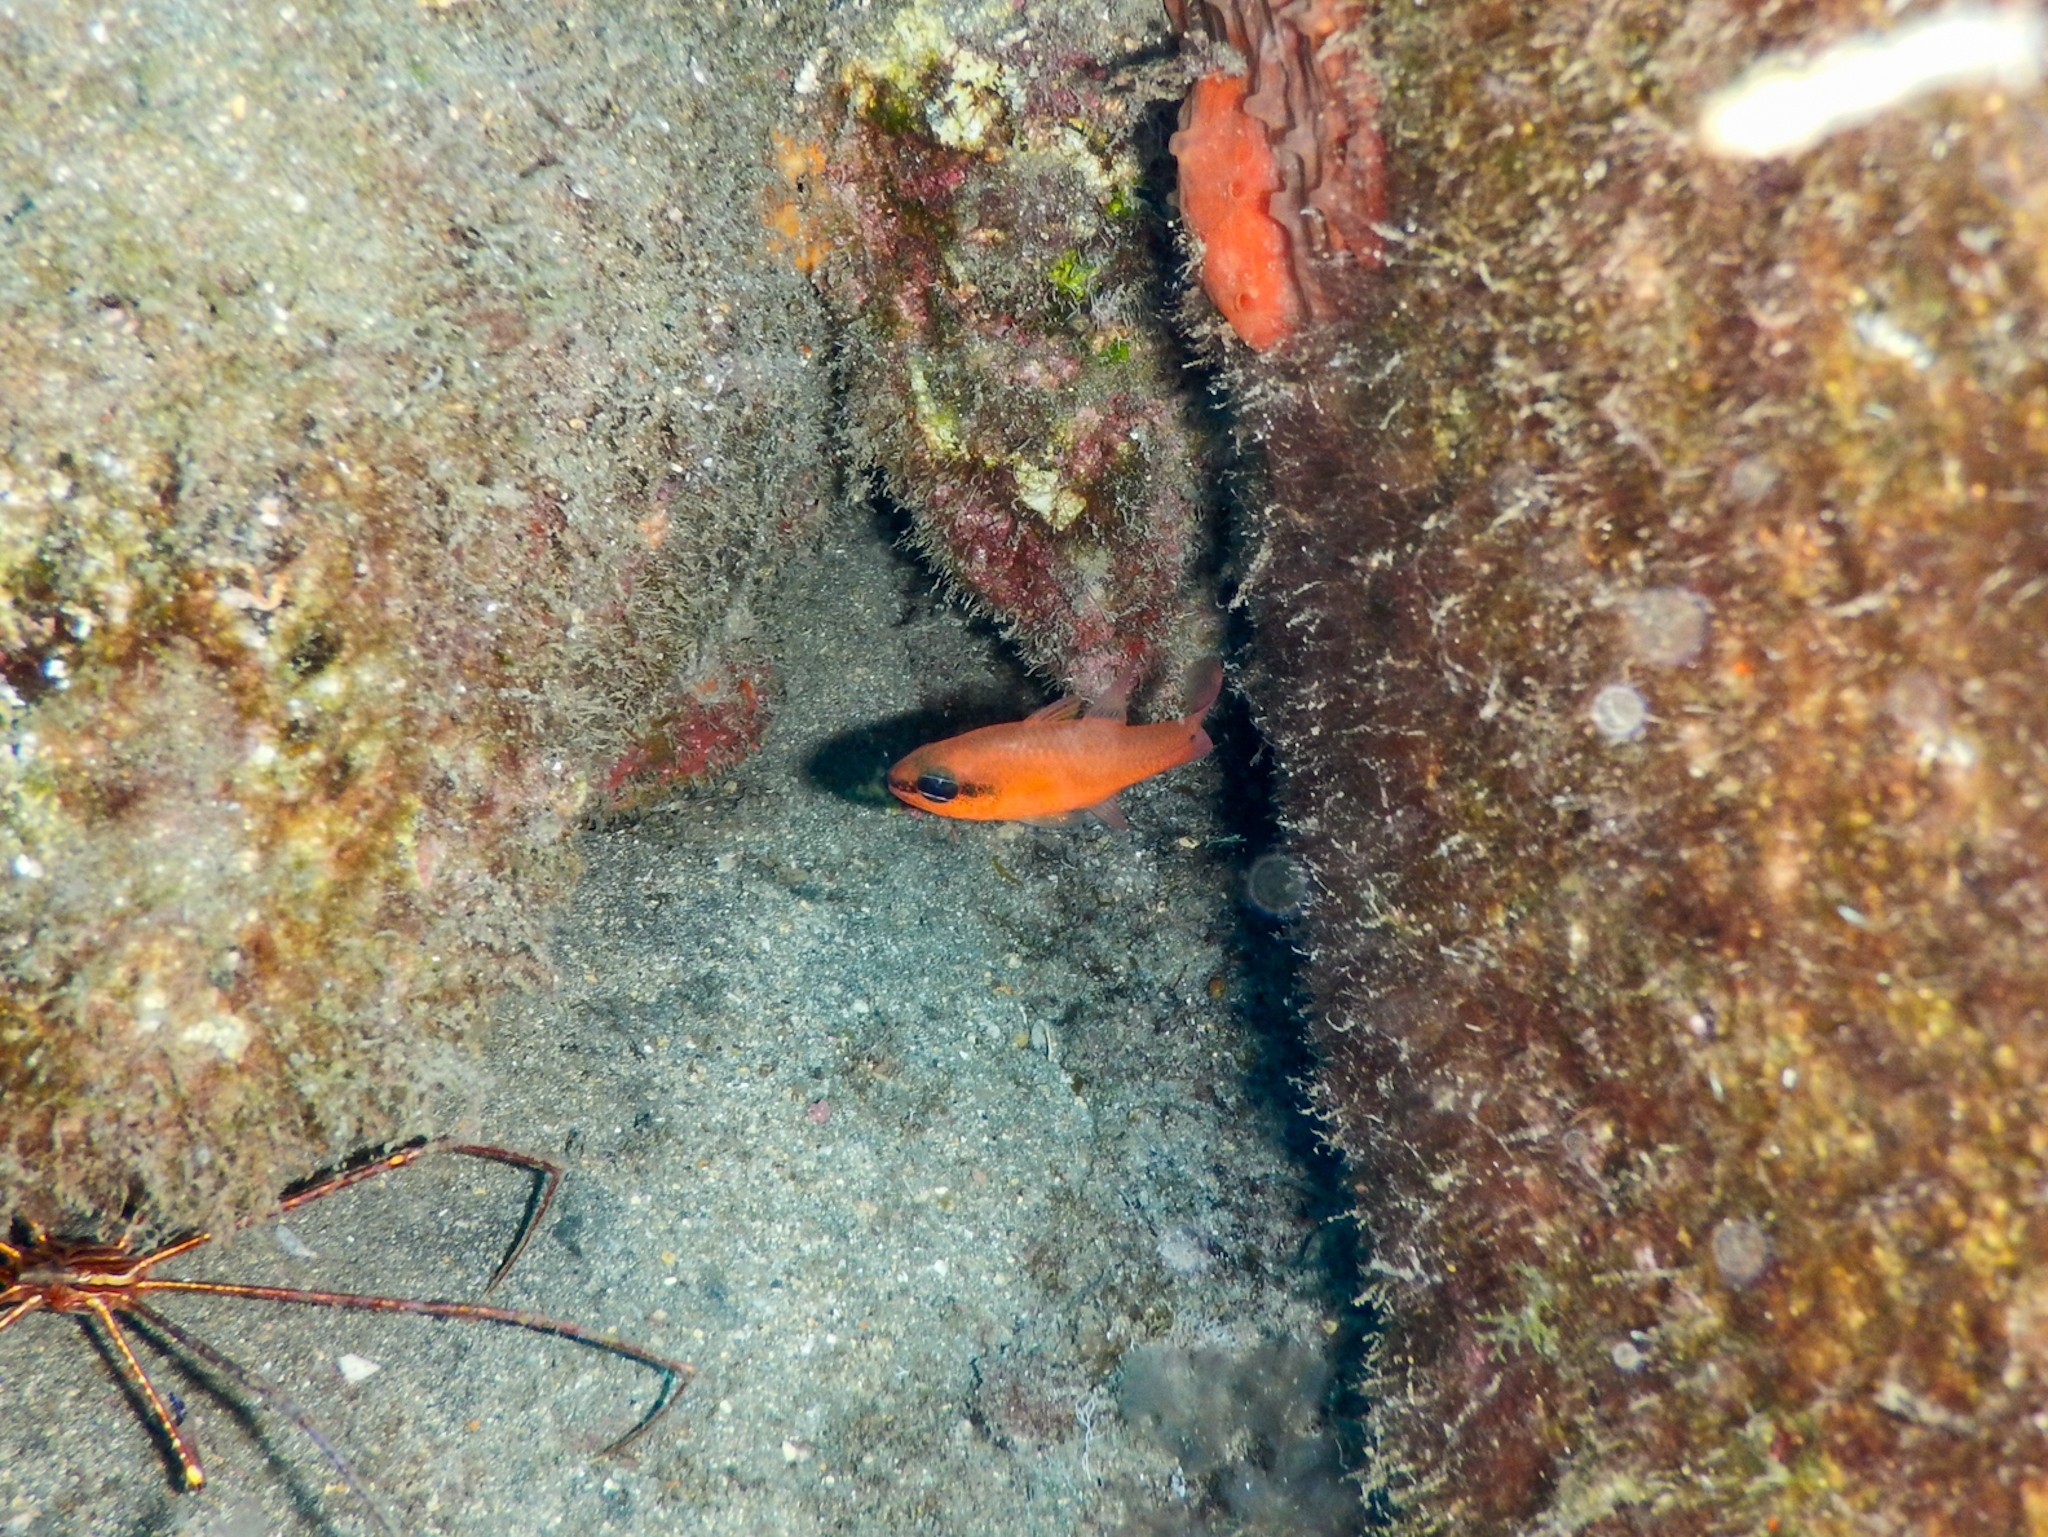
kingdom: Animalia
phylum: Chordata
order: Perciformes
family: Apogonidae
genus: Apogon
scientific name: Apogon imberbis
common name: Cardinal fish
